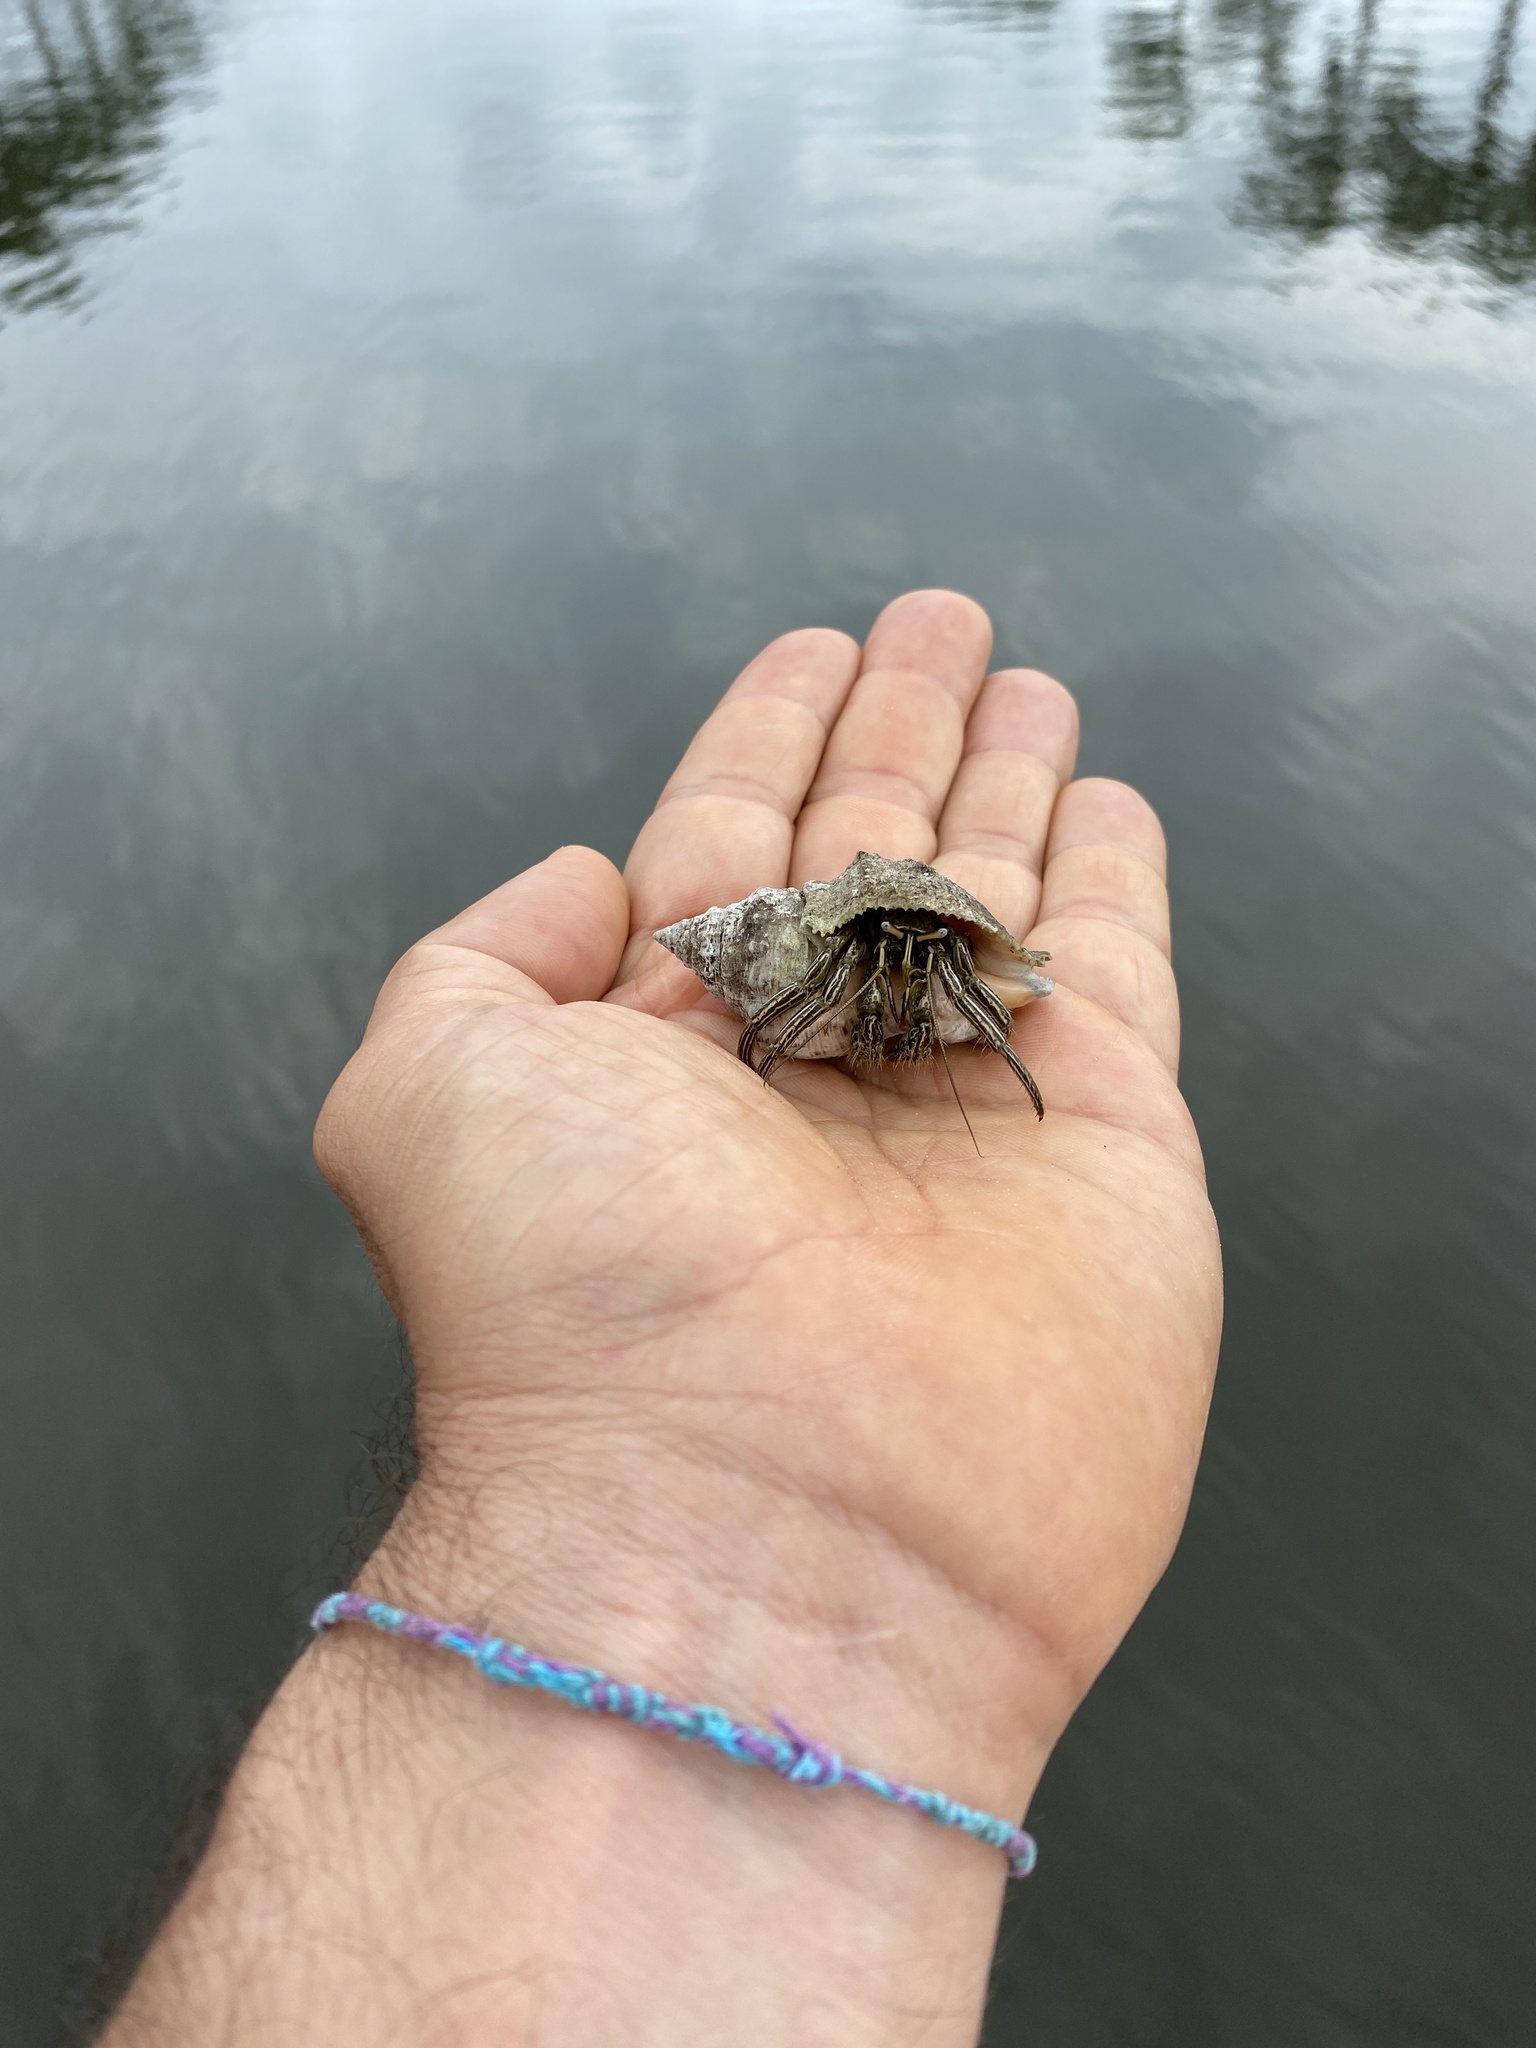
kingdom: Animalia
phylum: Arthropoda
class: Malacostraca
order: Decapoda
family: Diogenidae
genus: Clibanarius
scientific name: Clibanarius vittatus
